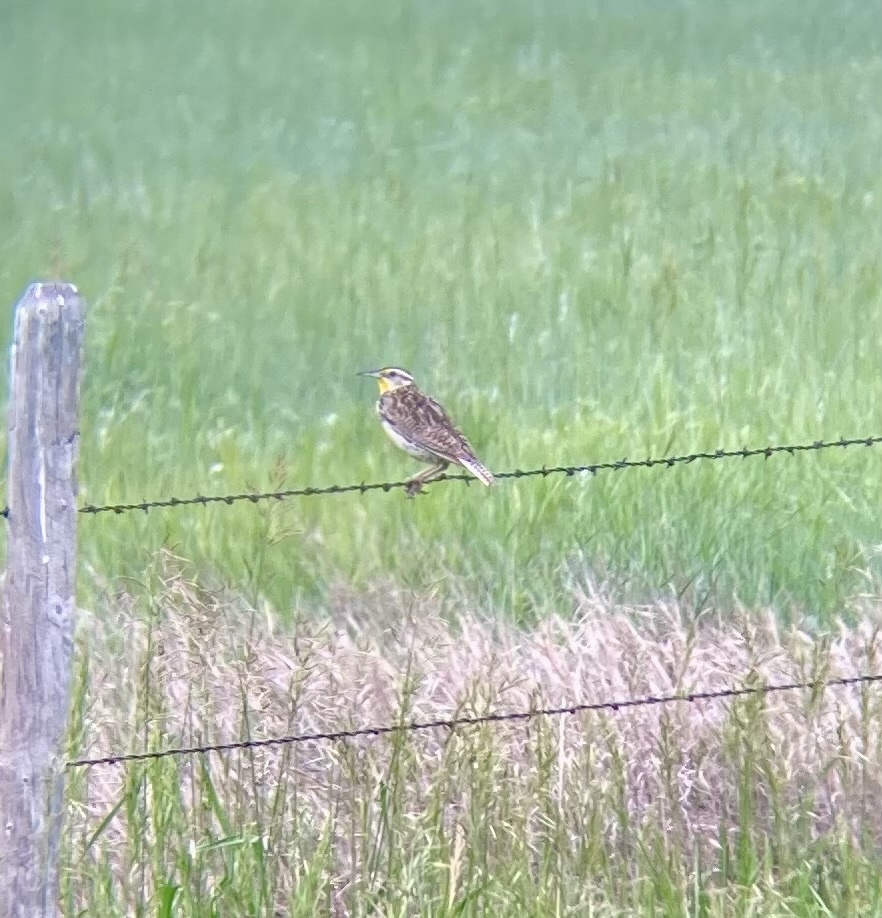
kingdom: Animalia
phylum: Chordata
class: Aves
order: Passeriformes
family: Icteridae
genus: Sturnella
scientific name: Sturnella neglecta
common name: Western meadowlark
